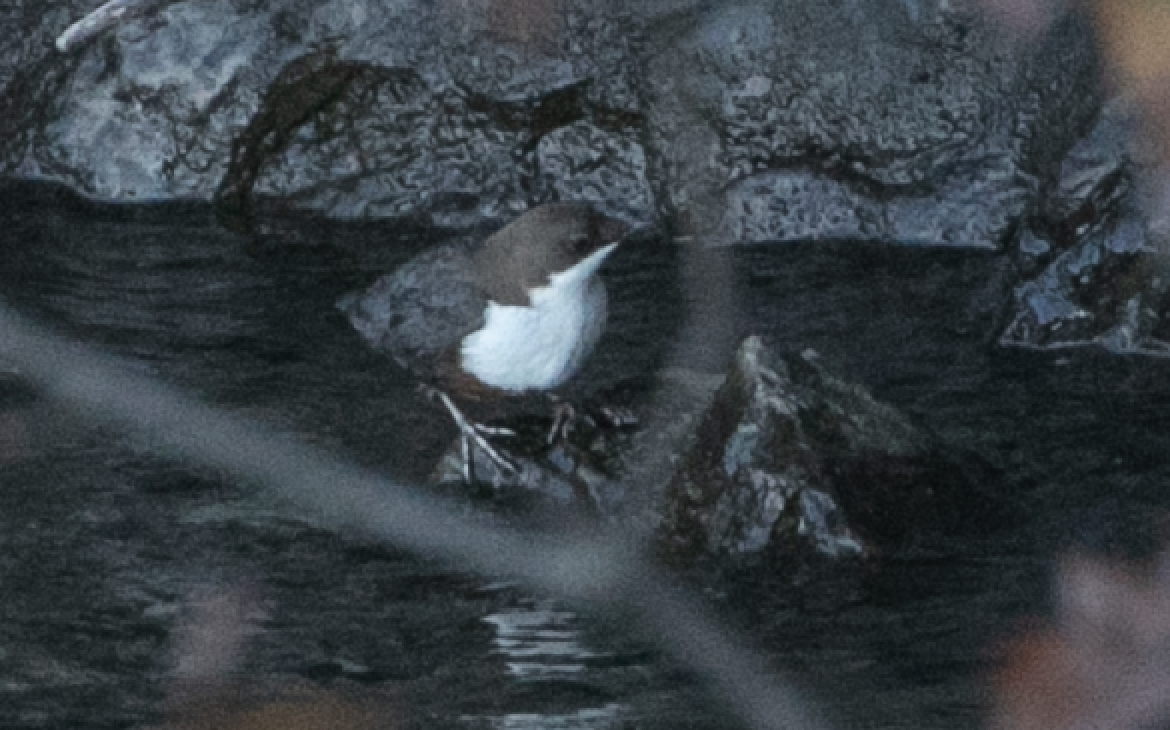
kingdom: Animalia
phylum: Chordata
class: Aves
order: Passeriformes
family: Cinclidae
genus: Cinclus
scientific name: Cinclus cinclus
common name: White-throated dipper
